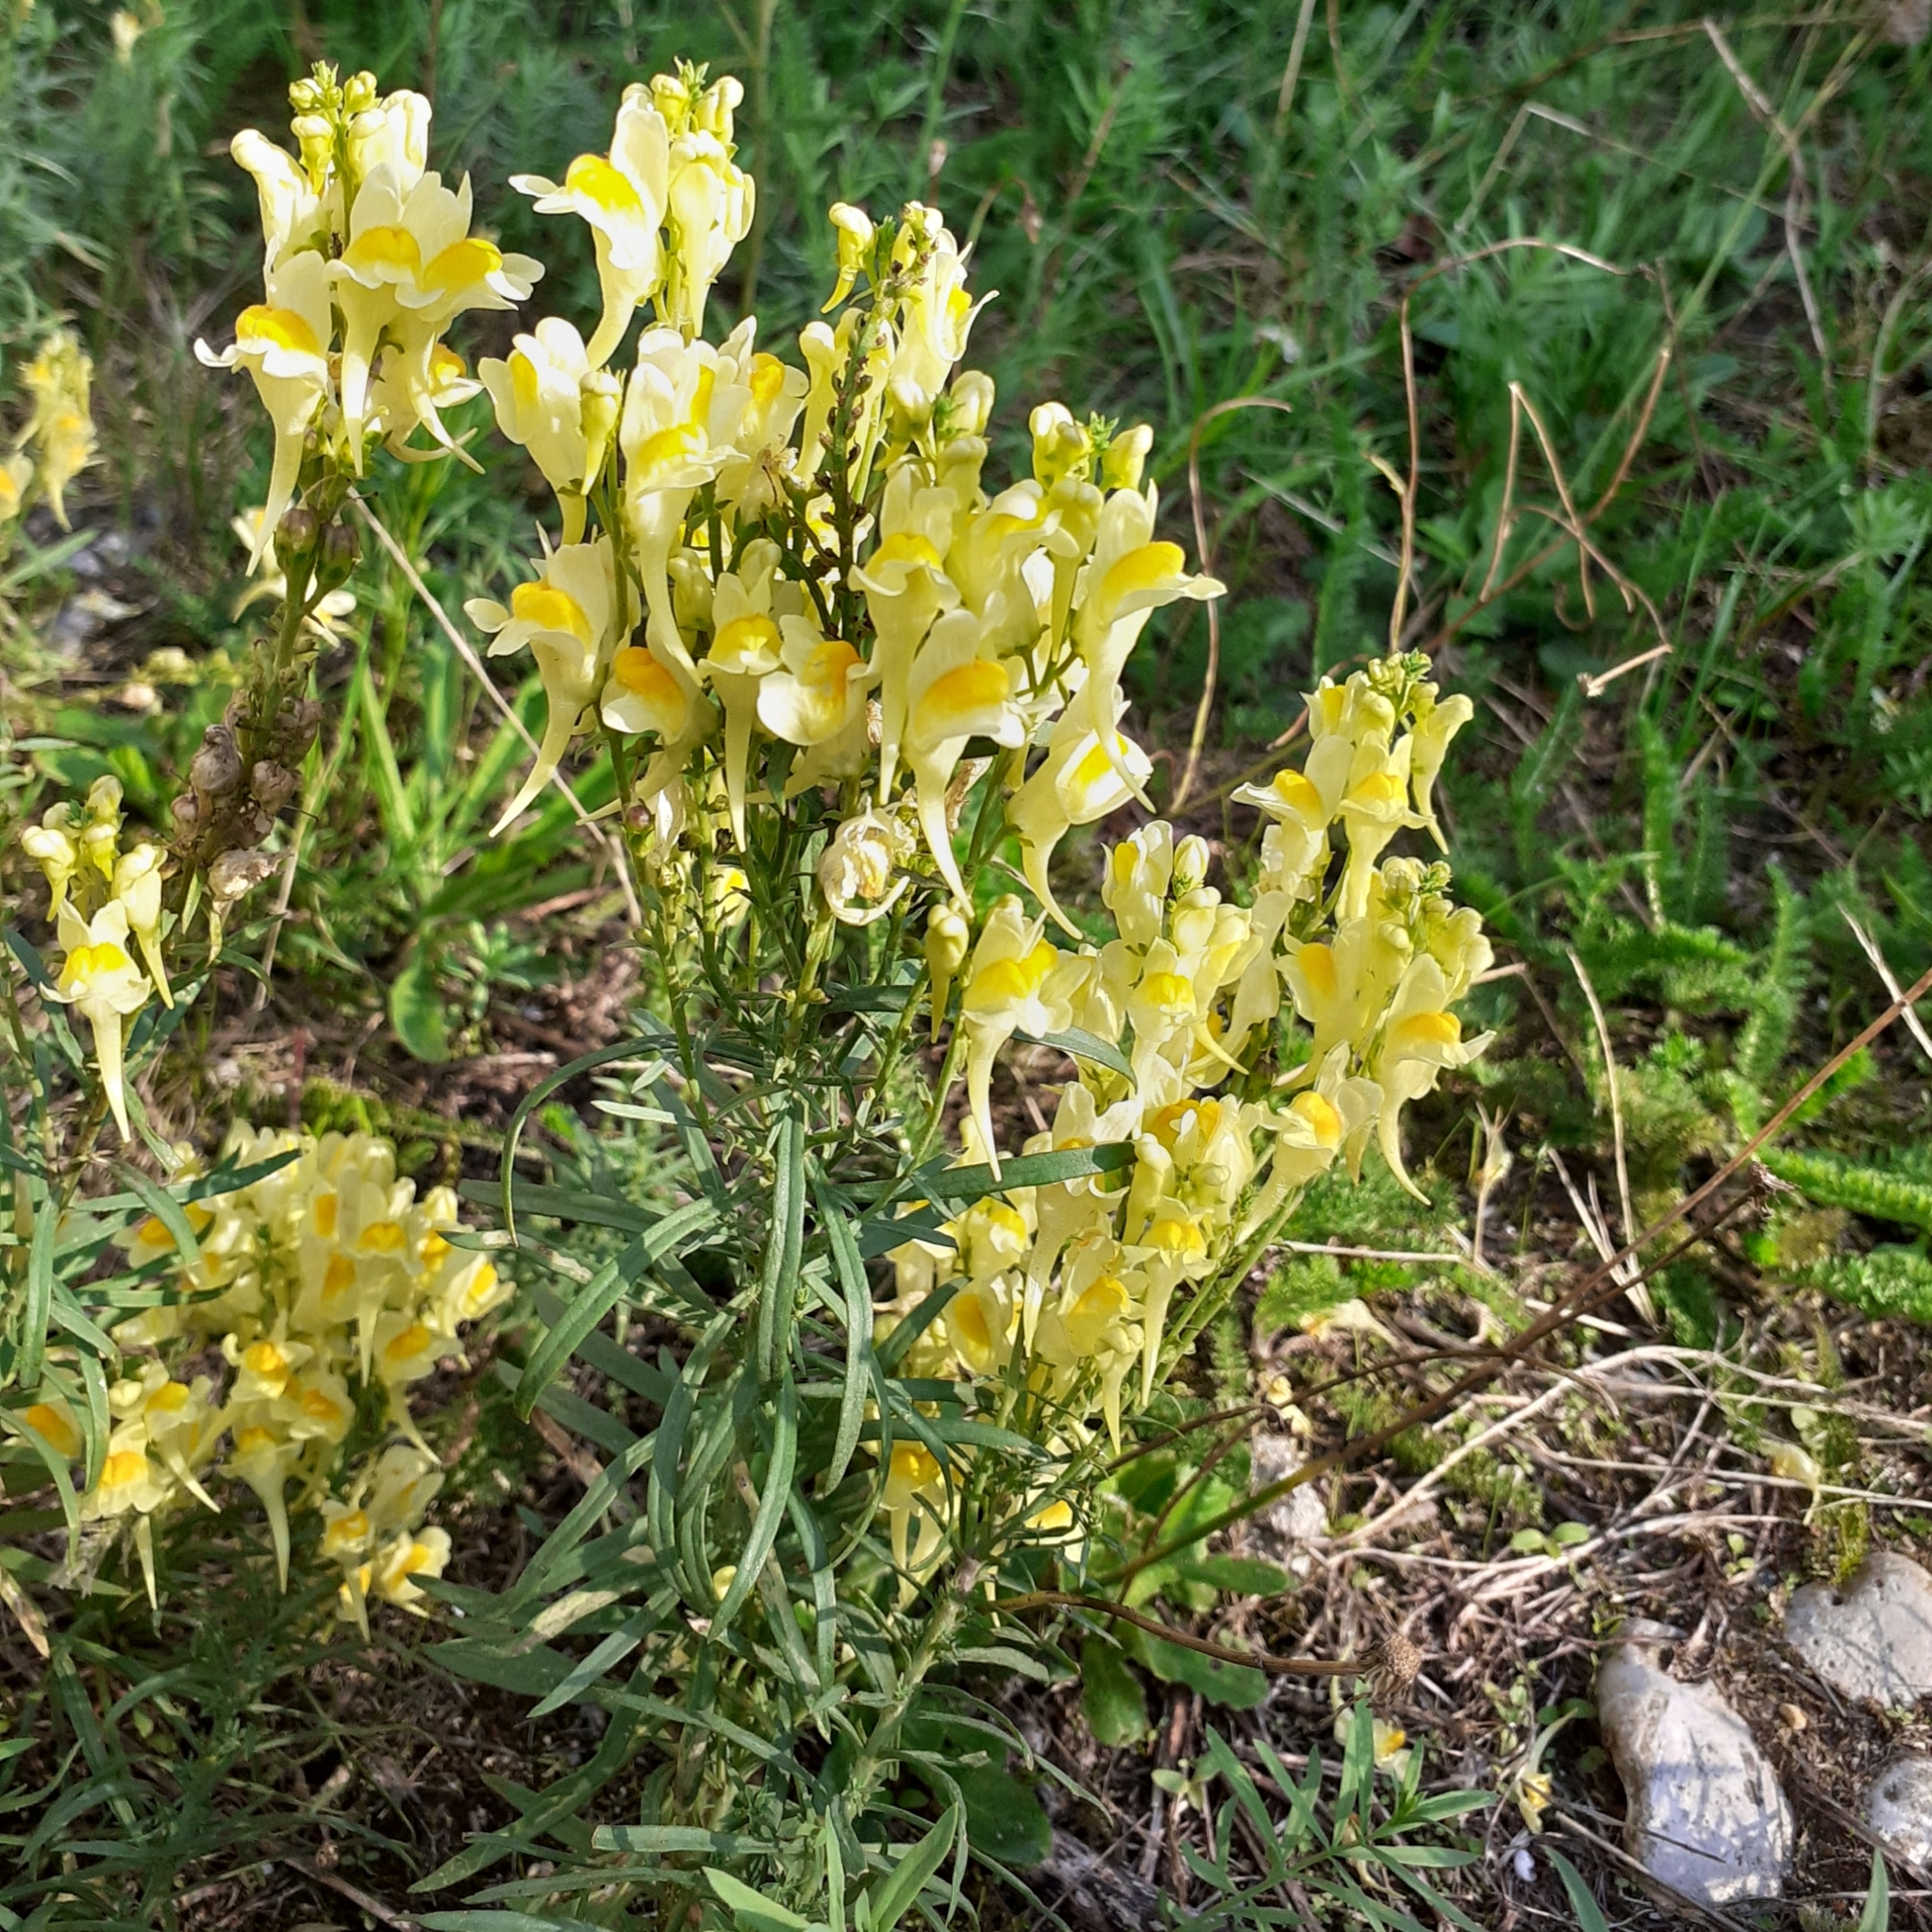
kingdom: Plantae
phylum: Tracheophyta
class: Magnoliopsida
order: Lamiales
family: Plantaginaceae
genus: Linaria
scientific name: Linaria vulgaris
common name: Butter and eggs
